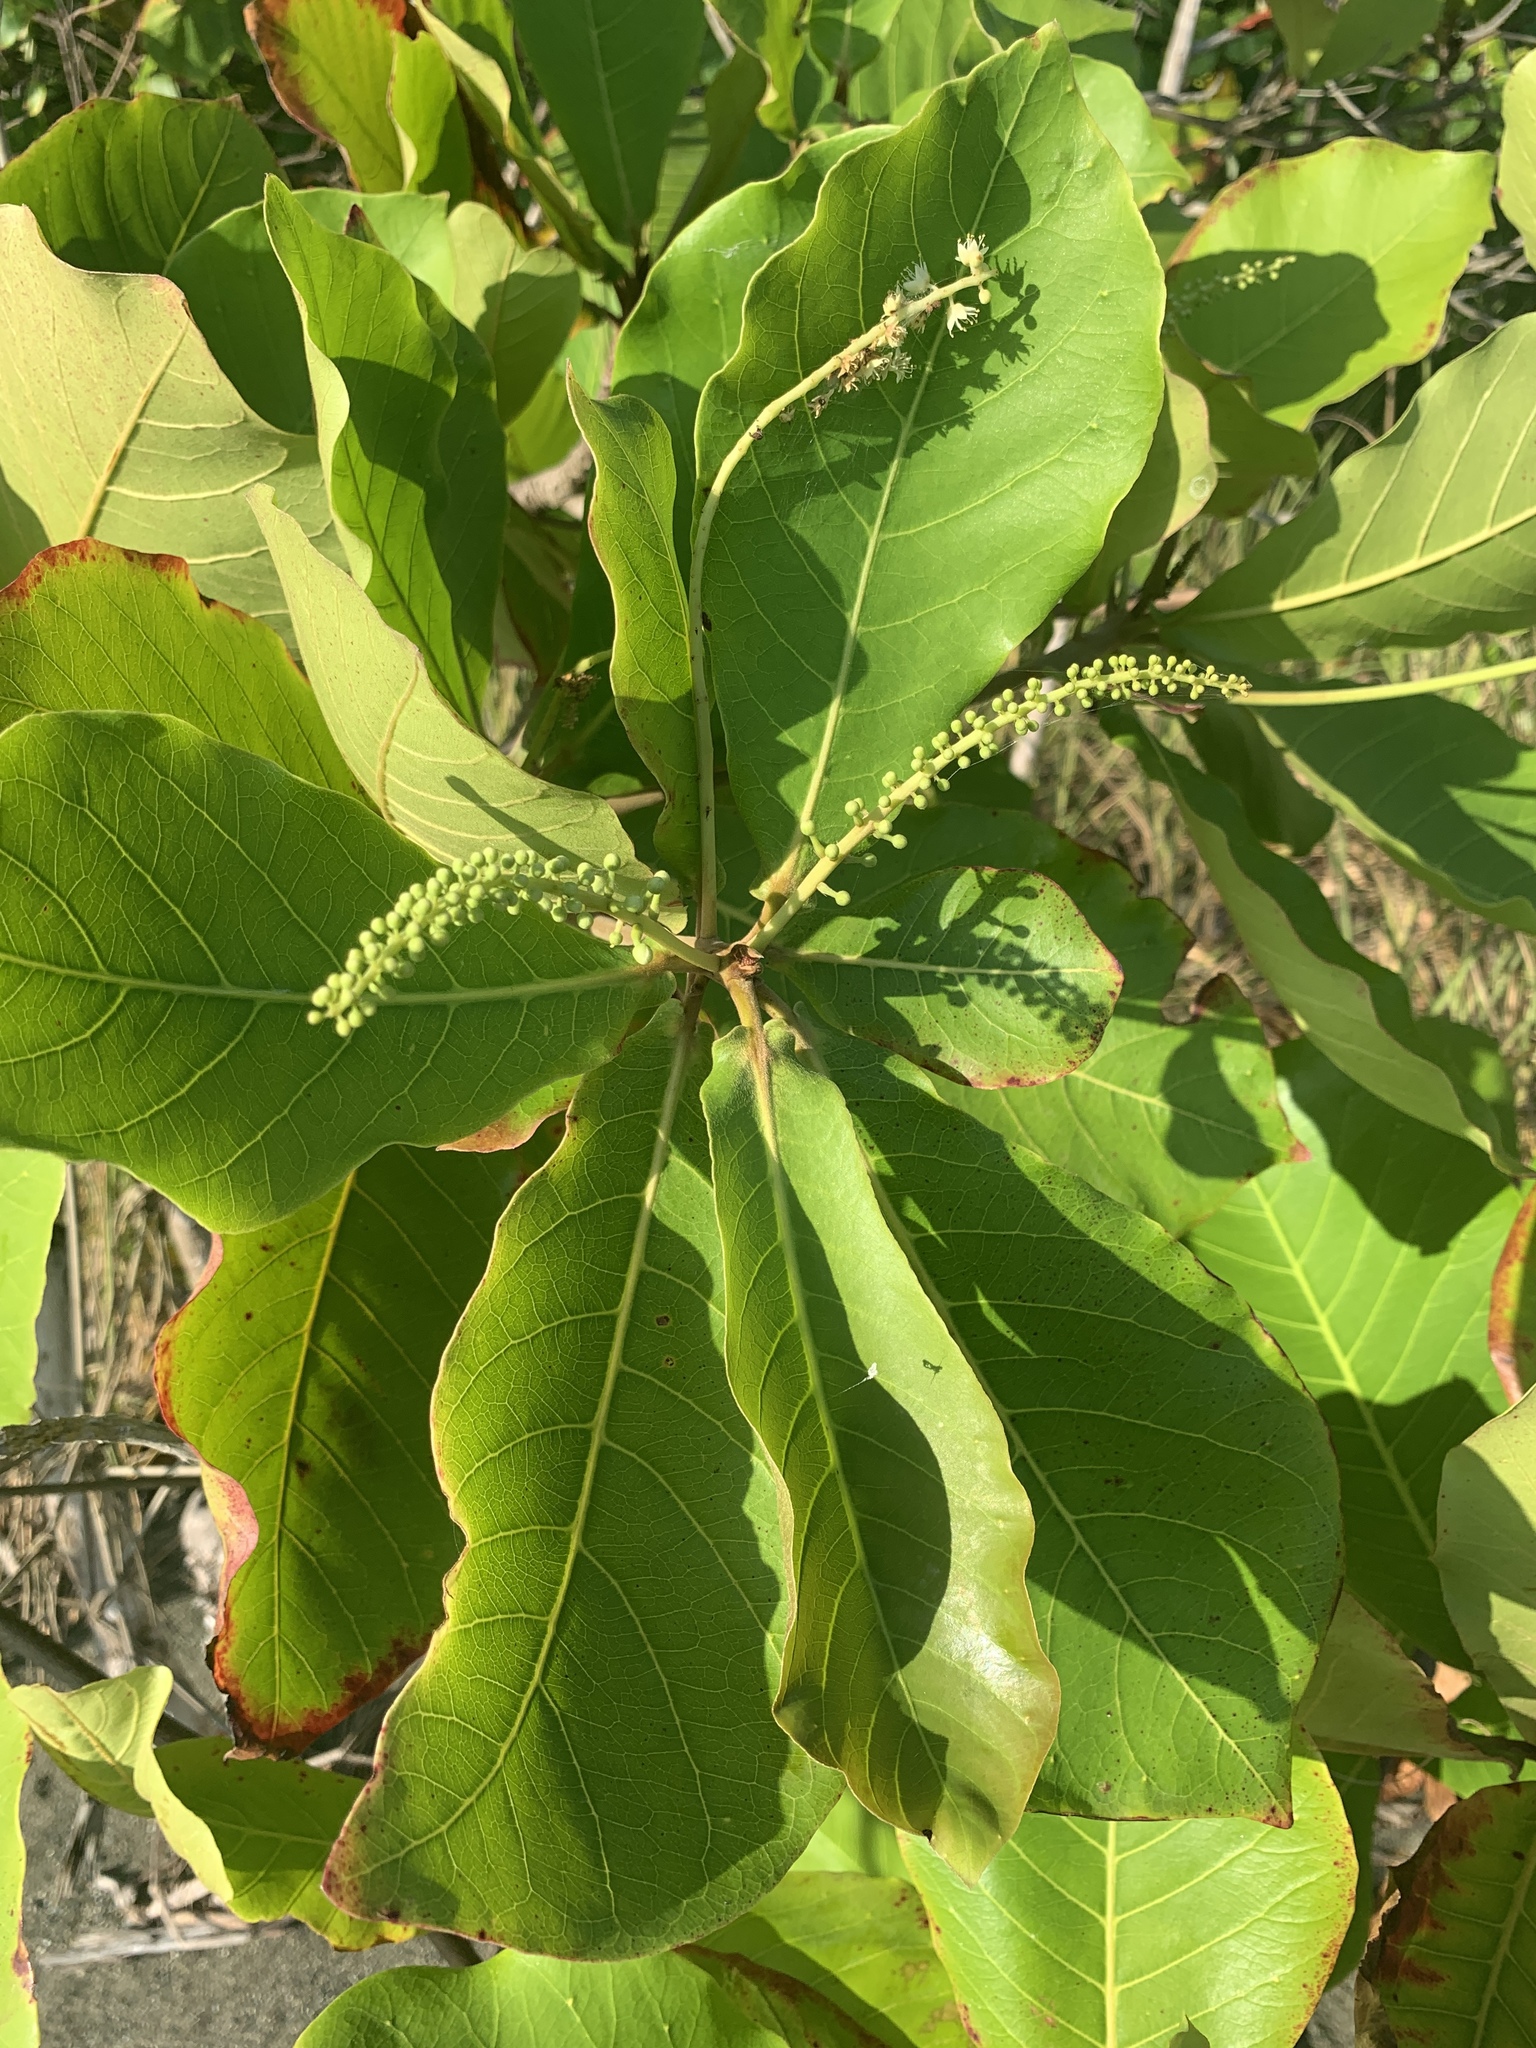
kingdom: Plantae
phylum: Tracheophyta
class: Magnoliopsida
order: Myrtales
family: Combretaceae
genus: Terminalia
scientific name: Terminalia catappa
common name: Tropical almond
